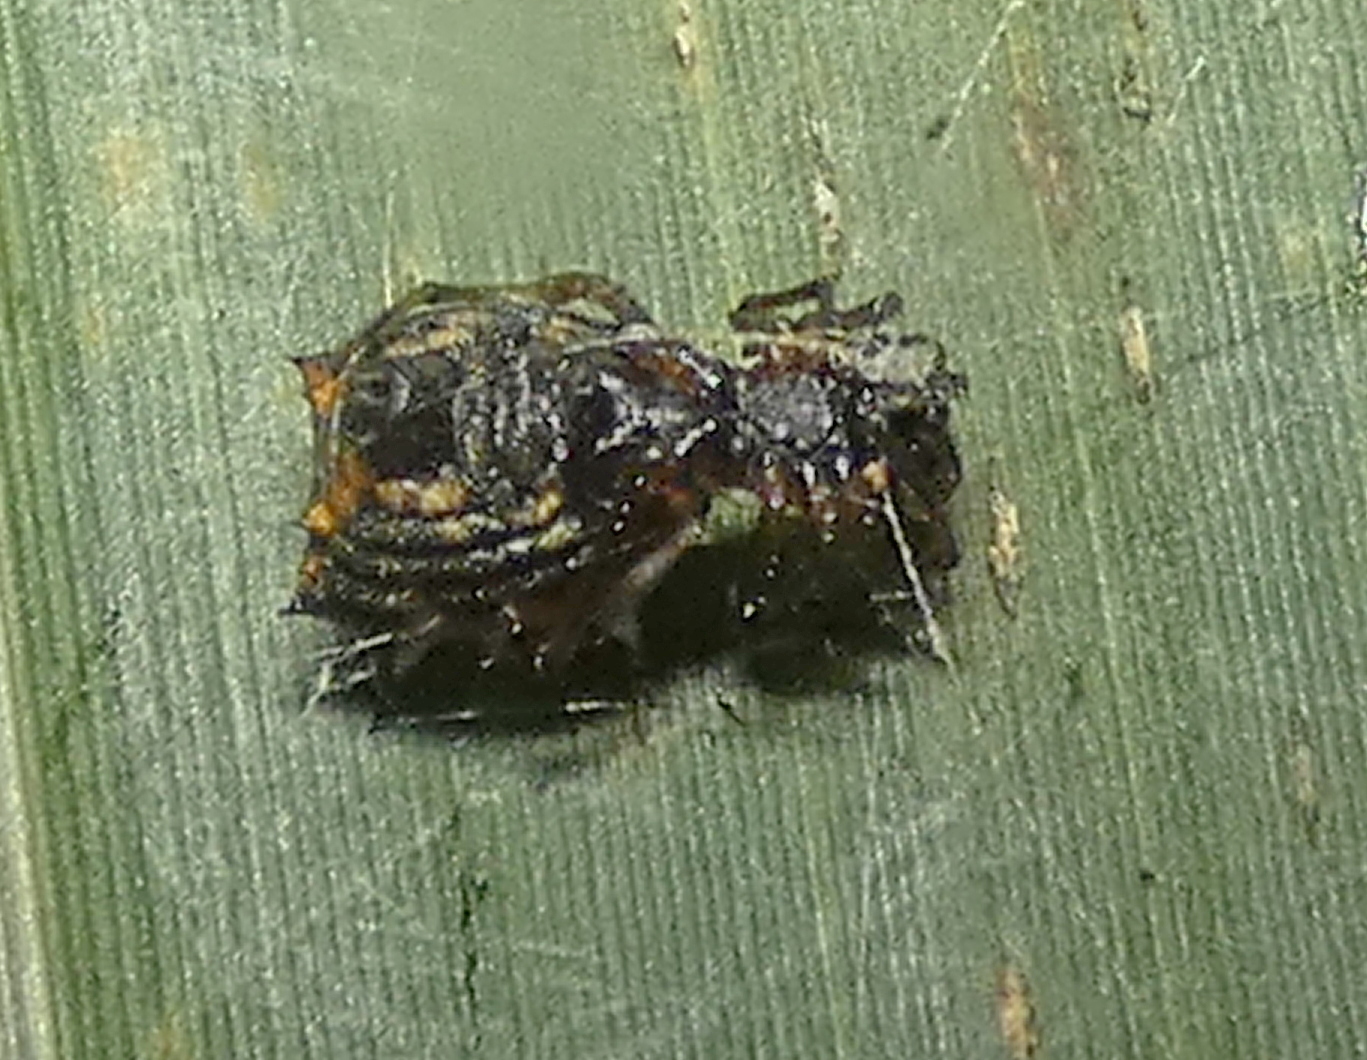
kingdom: Animalia
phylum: Arthropoda
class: Arachnida
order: Araneae
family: Araneidae
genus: Micrathena
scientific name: Micrathena picta
